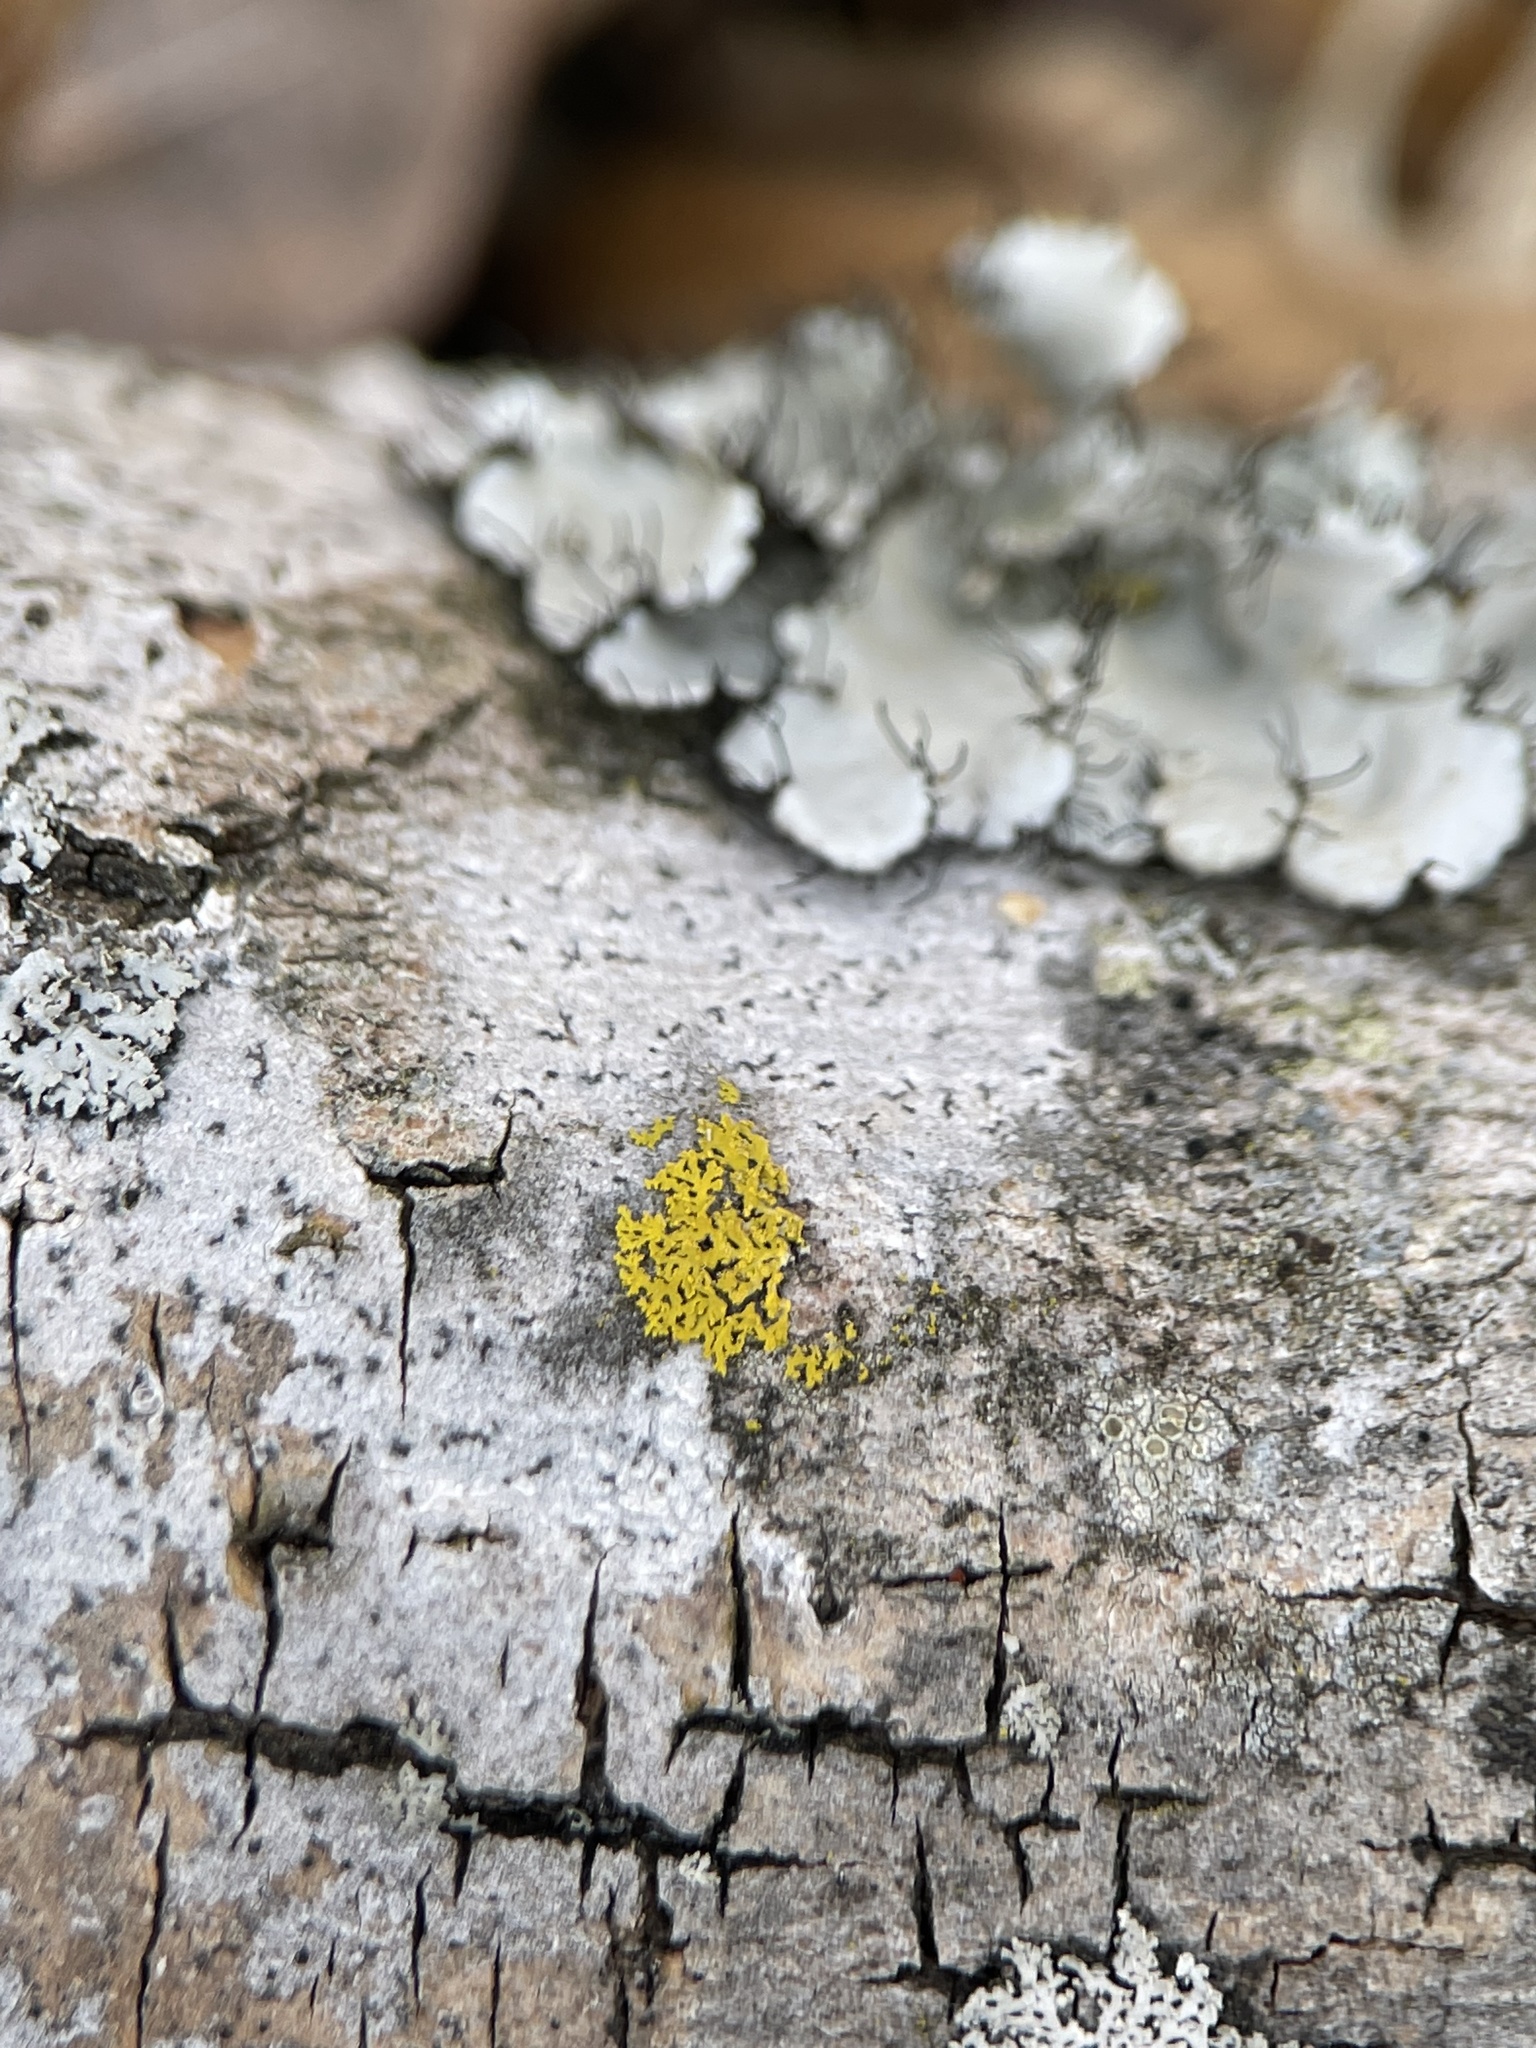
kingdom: Fungi
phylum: Ascomycota
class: Candelariomycetes
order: Candelariales
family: Candelariaceae
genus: Candelaria
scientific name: Candelaria concolor
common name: Candleflame lichen
